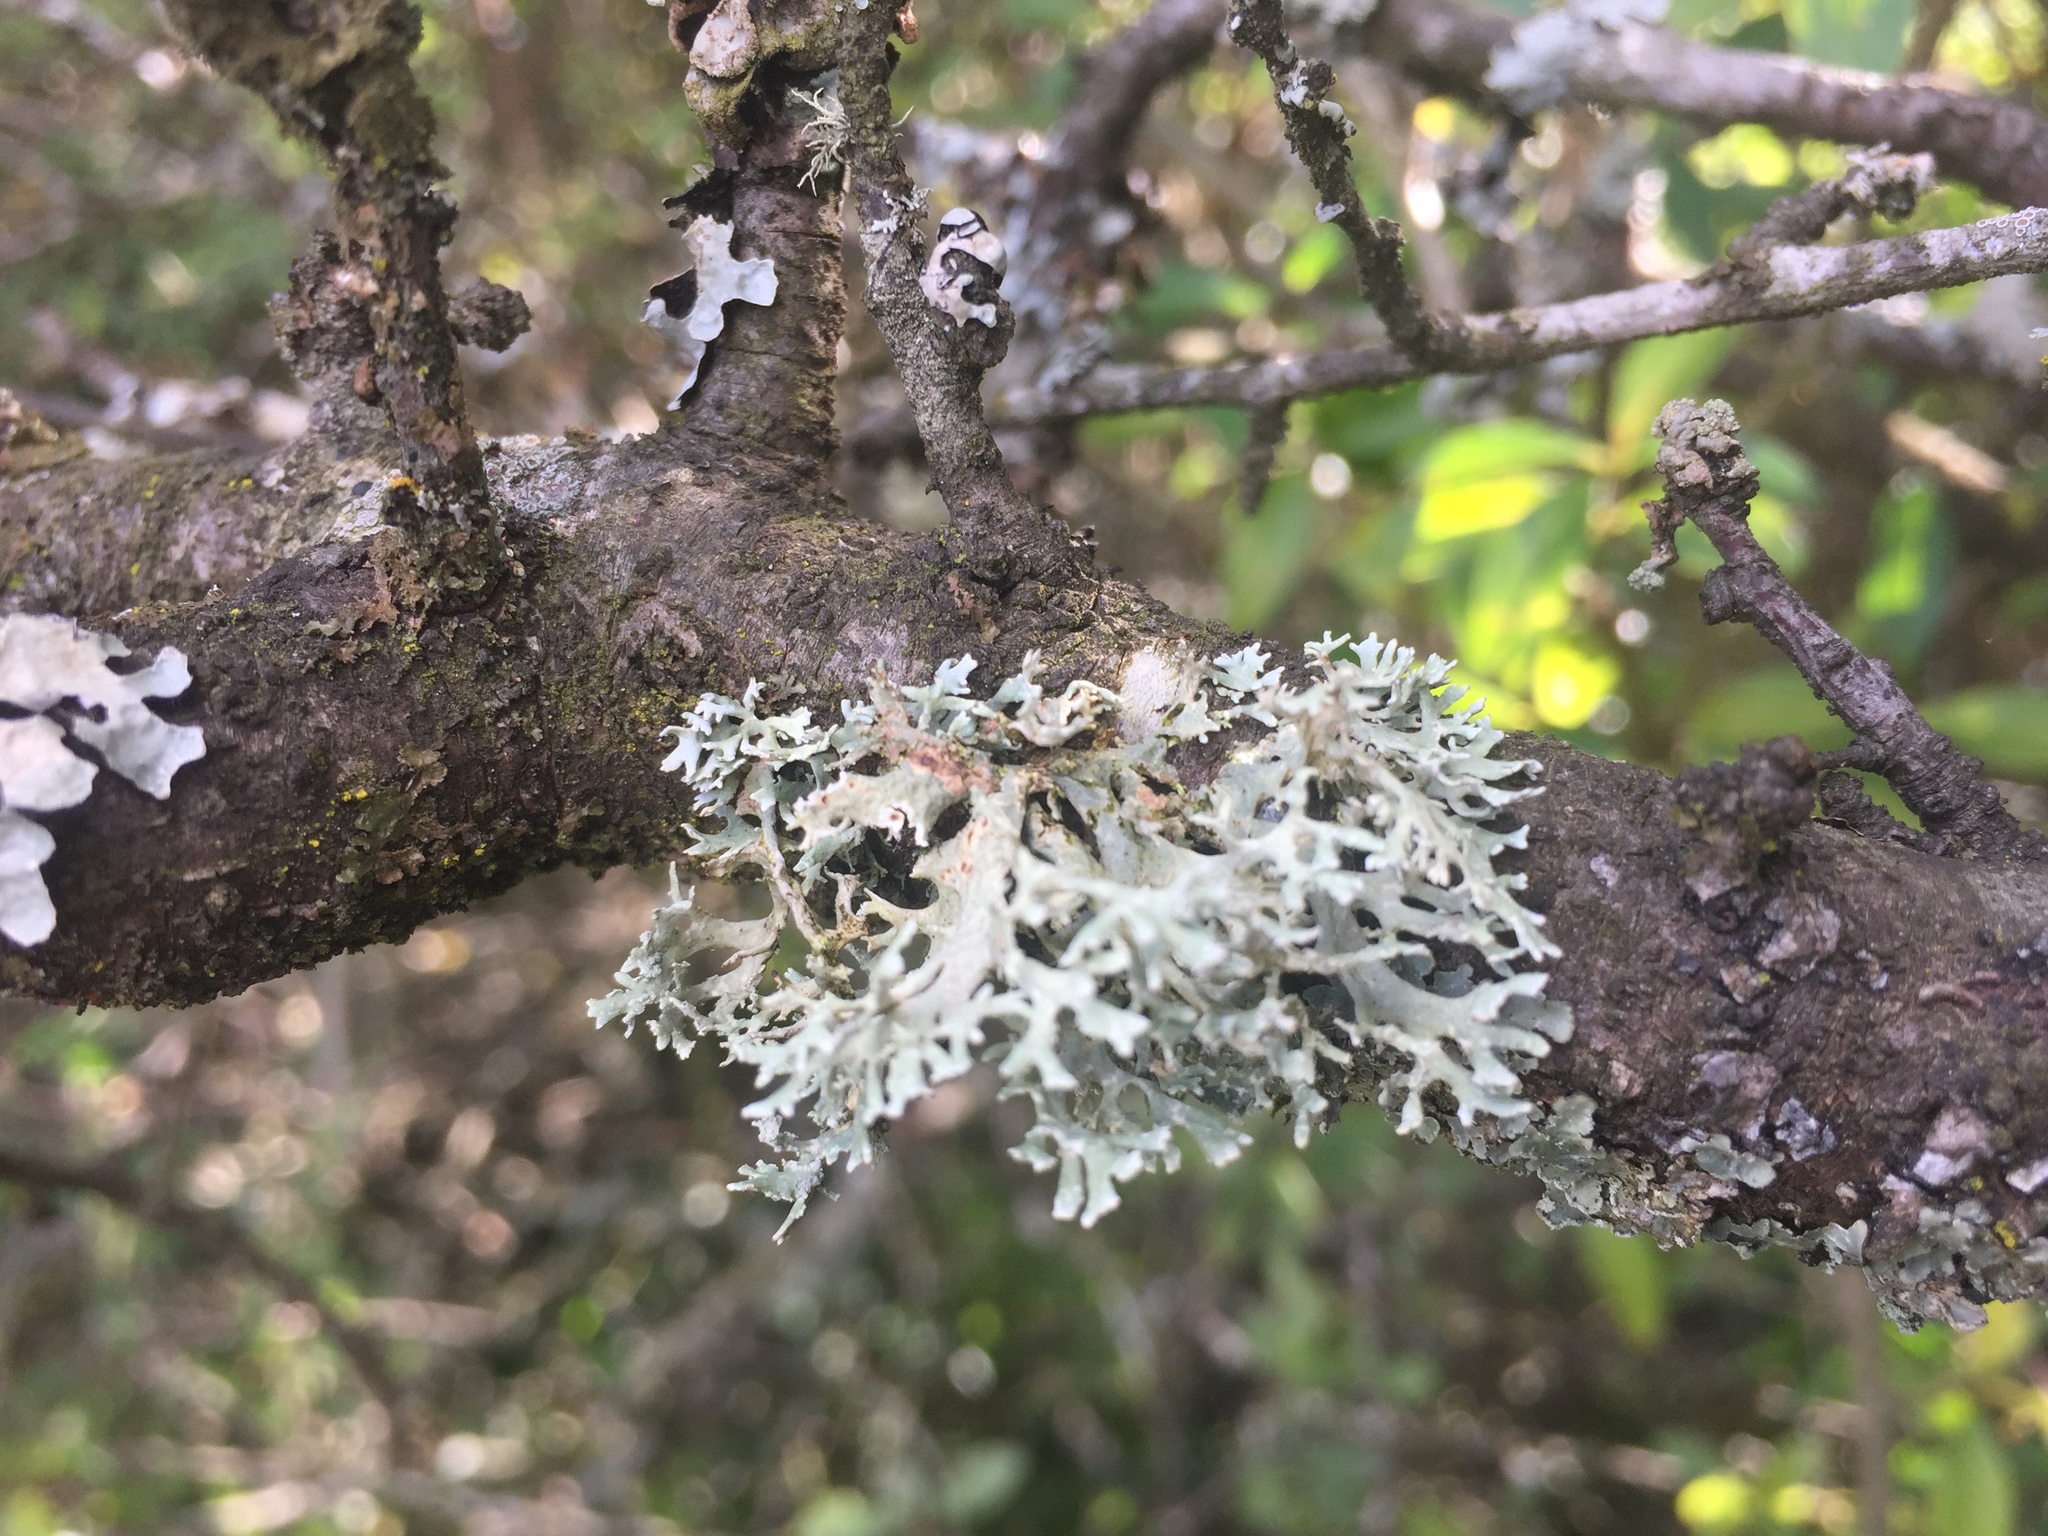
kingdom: Fungi
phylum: Ascomycota
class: Lecanoromycetes
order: Lecanorales
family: Parmeliaceae
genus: Evernia
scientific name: Evernia prunastri
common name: Oak moss
